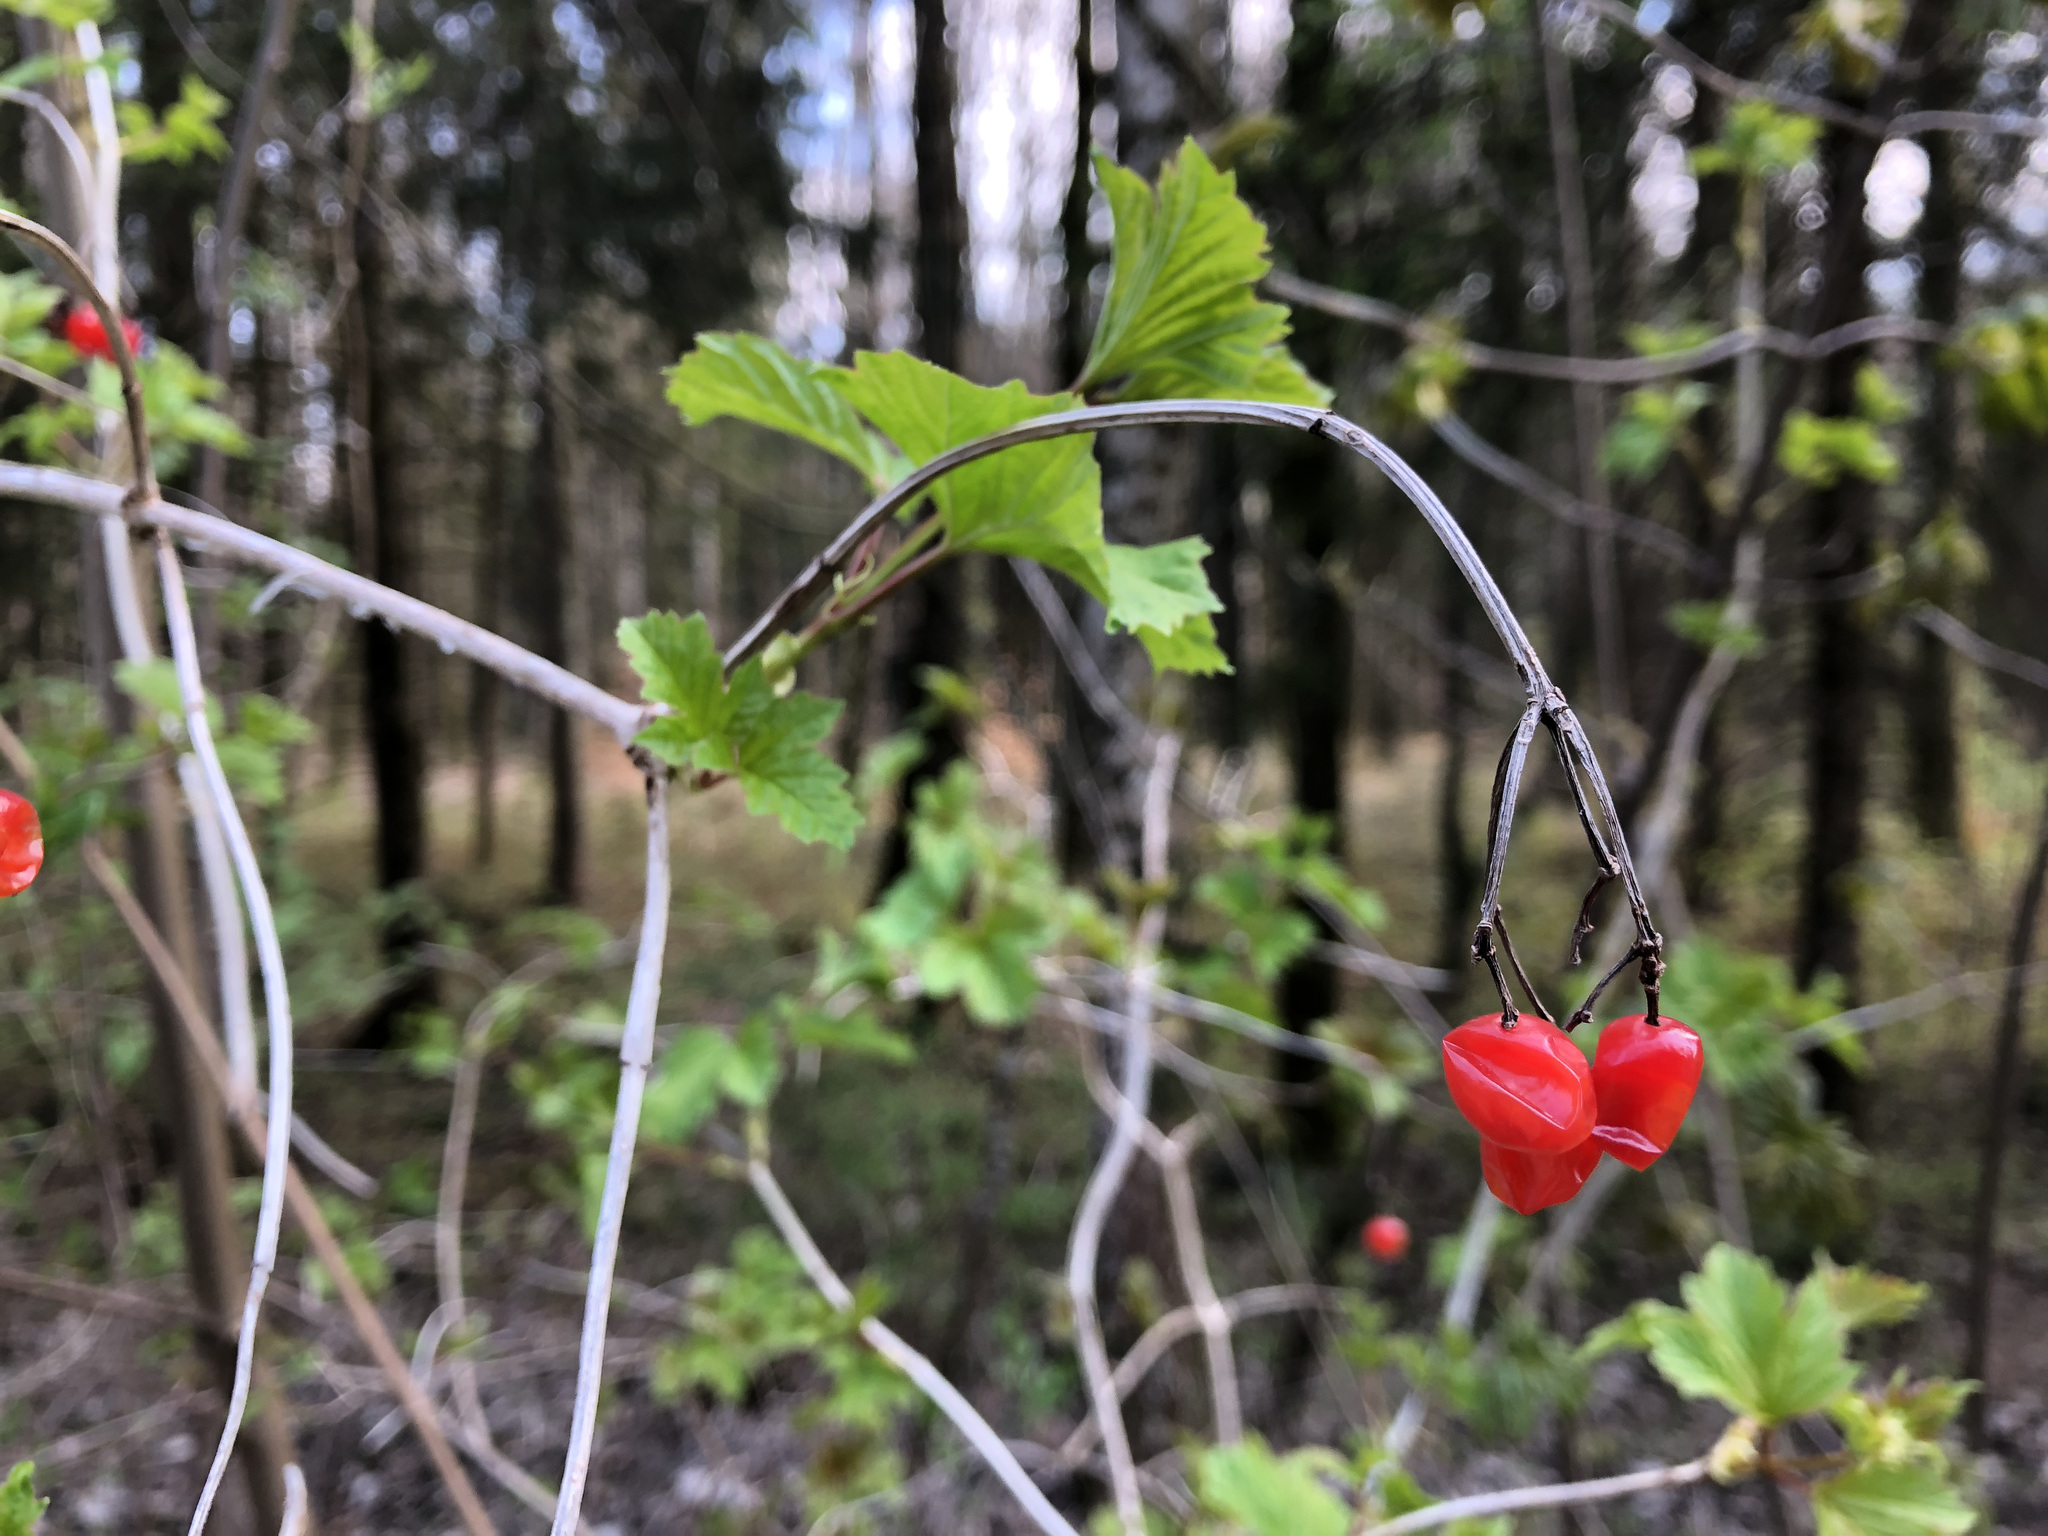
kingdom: Plantae
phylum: Tracheophyta
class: Magnoliopsida
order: Dipsacales
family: Viburnaceae
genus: Viburnum
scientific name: Viburnum opulus
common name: Guelder-rose
